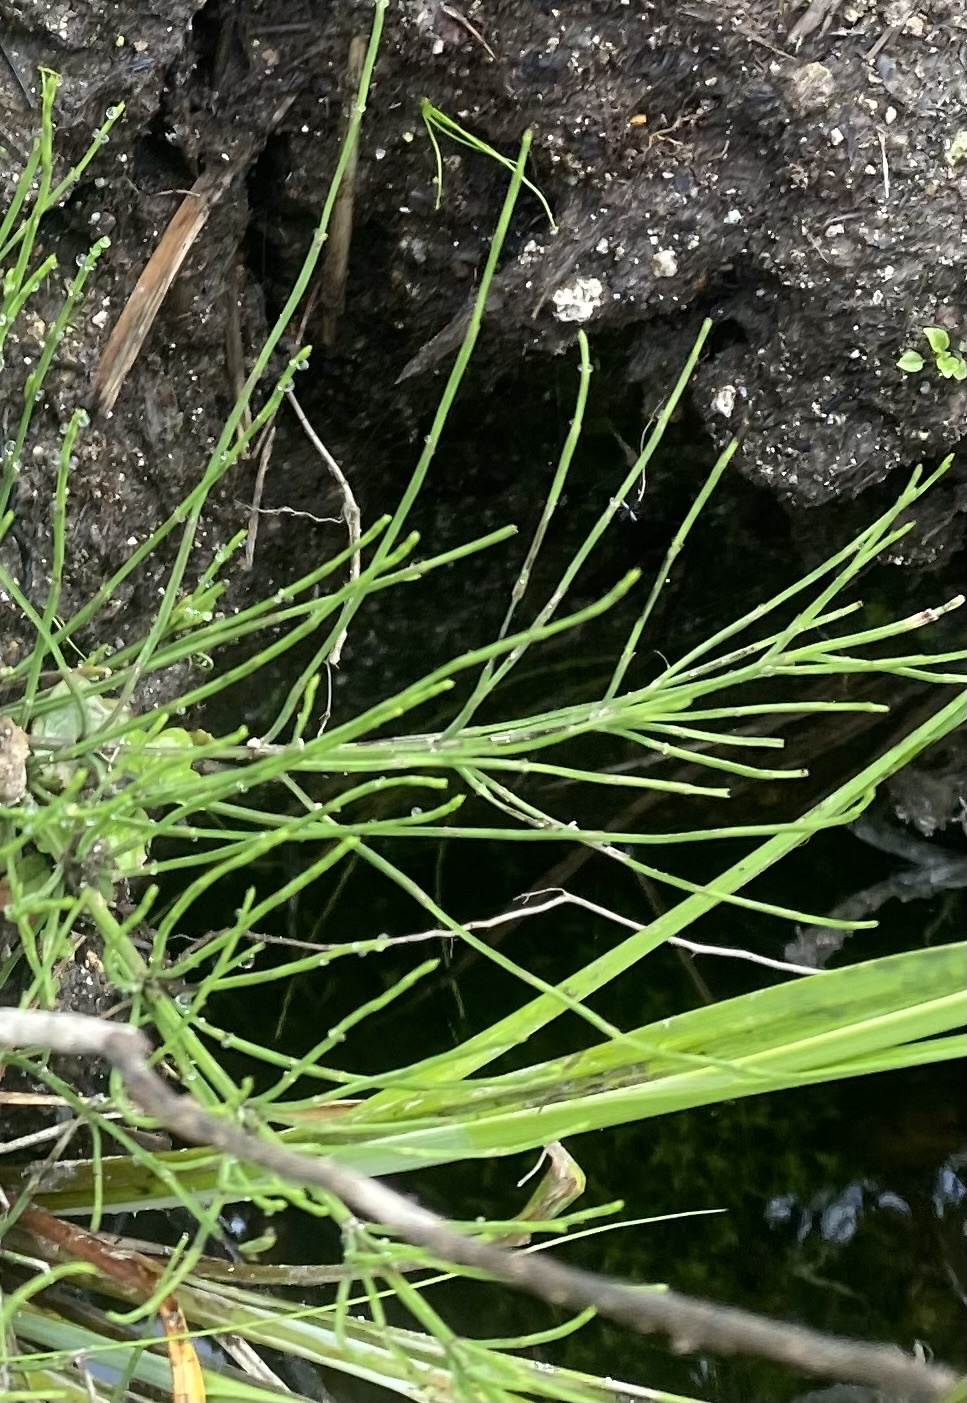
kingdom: Plantae
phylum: Tracheophyta
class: Polypodiopsida
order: Equisetales
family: Equisetaceae
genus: Equisetum
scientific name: Equisetum arvense
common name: Field horsetail
